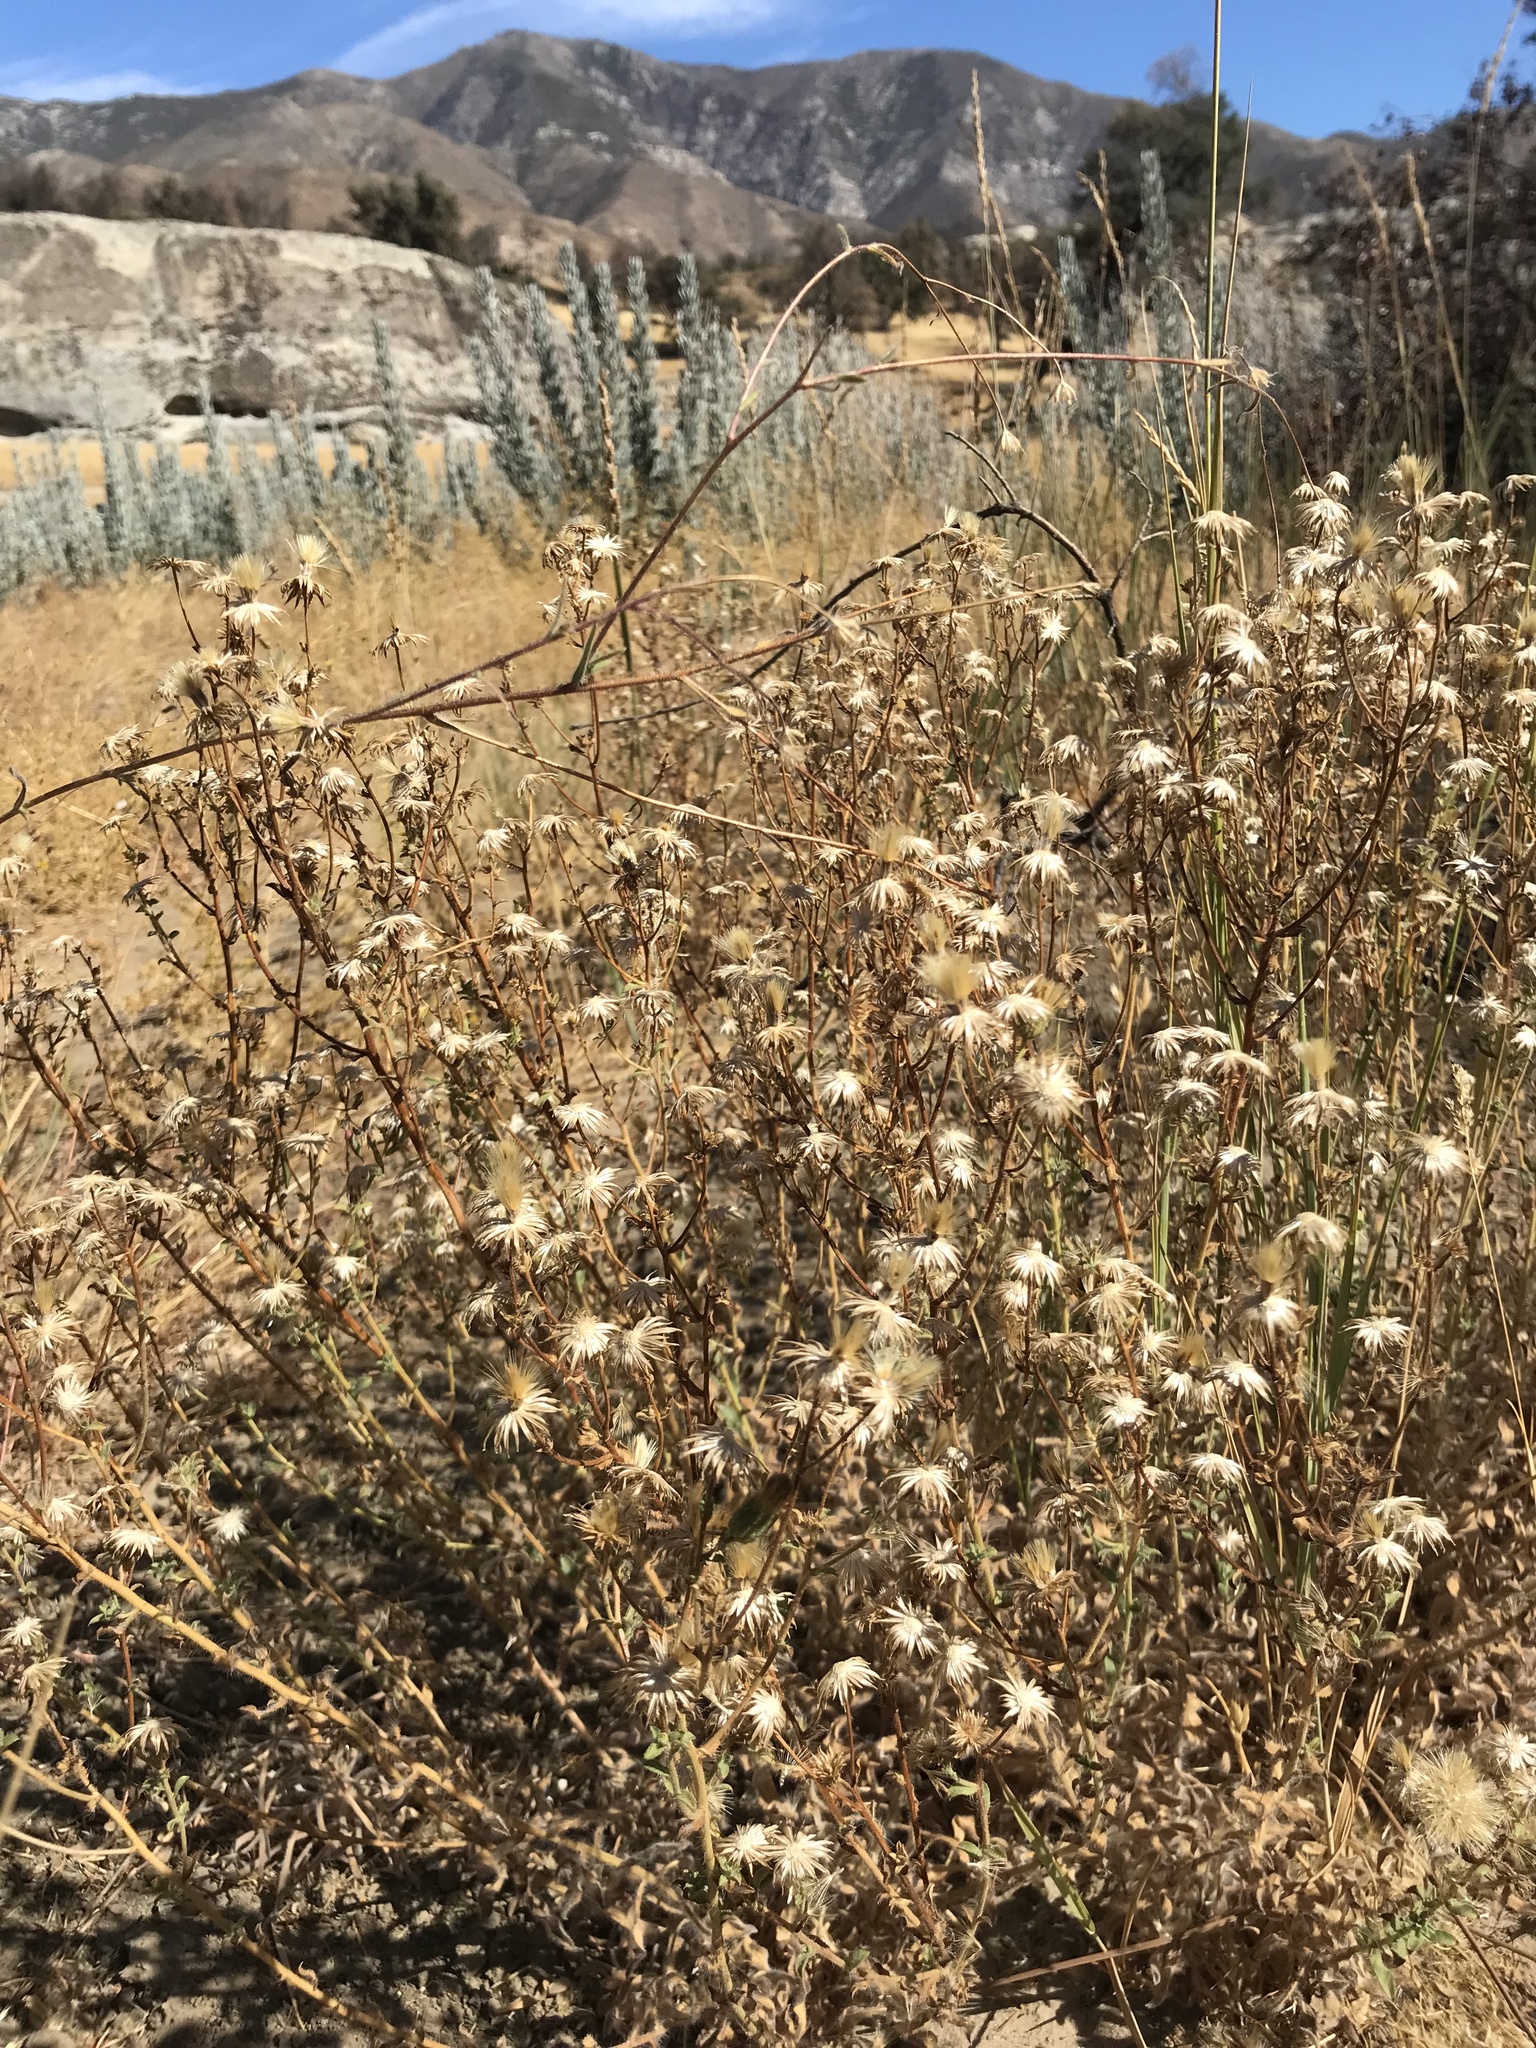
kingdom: Plantae
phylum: Tracheophyta
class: Magnoliopsida
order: Asterales
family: Asteraceae
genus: Dittrichia
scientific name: Dittrichia graveolens
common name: Stinking fleabane
